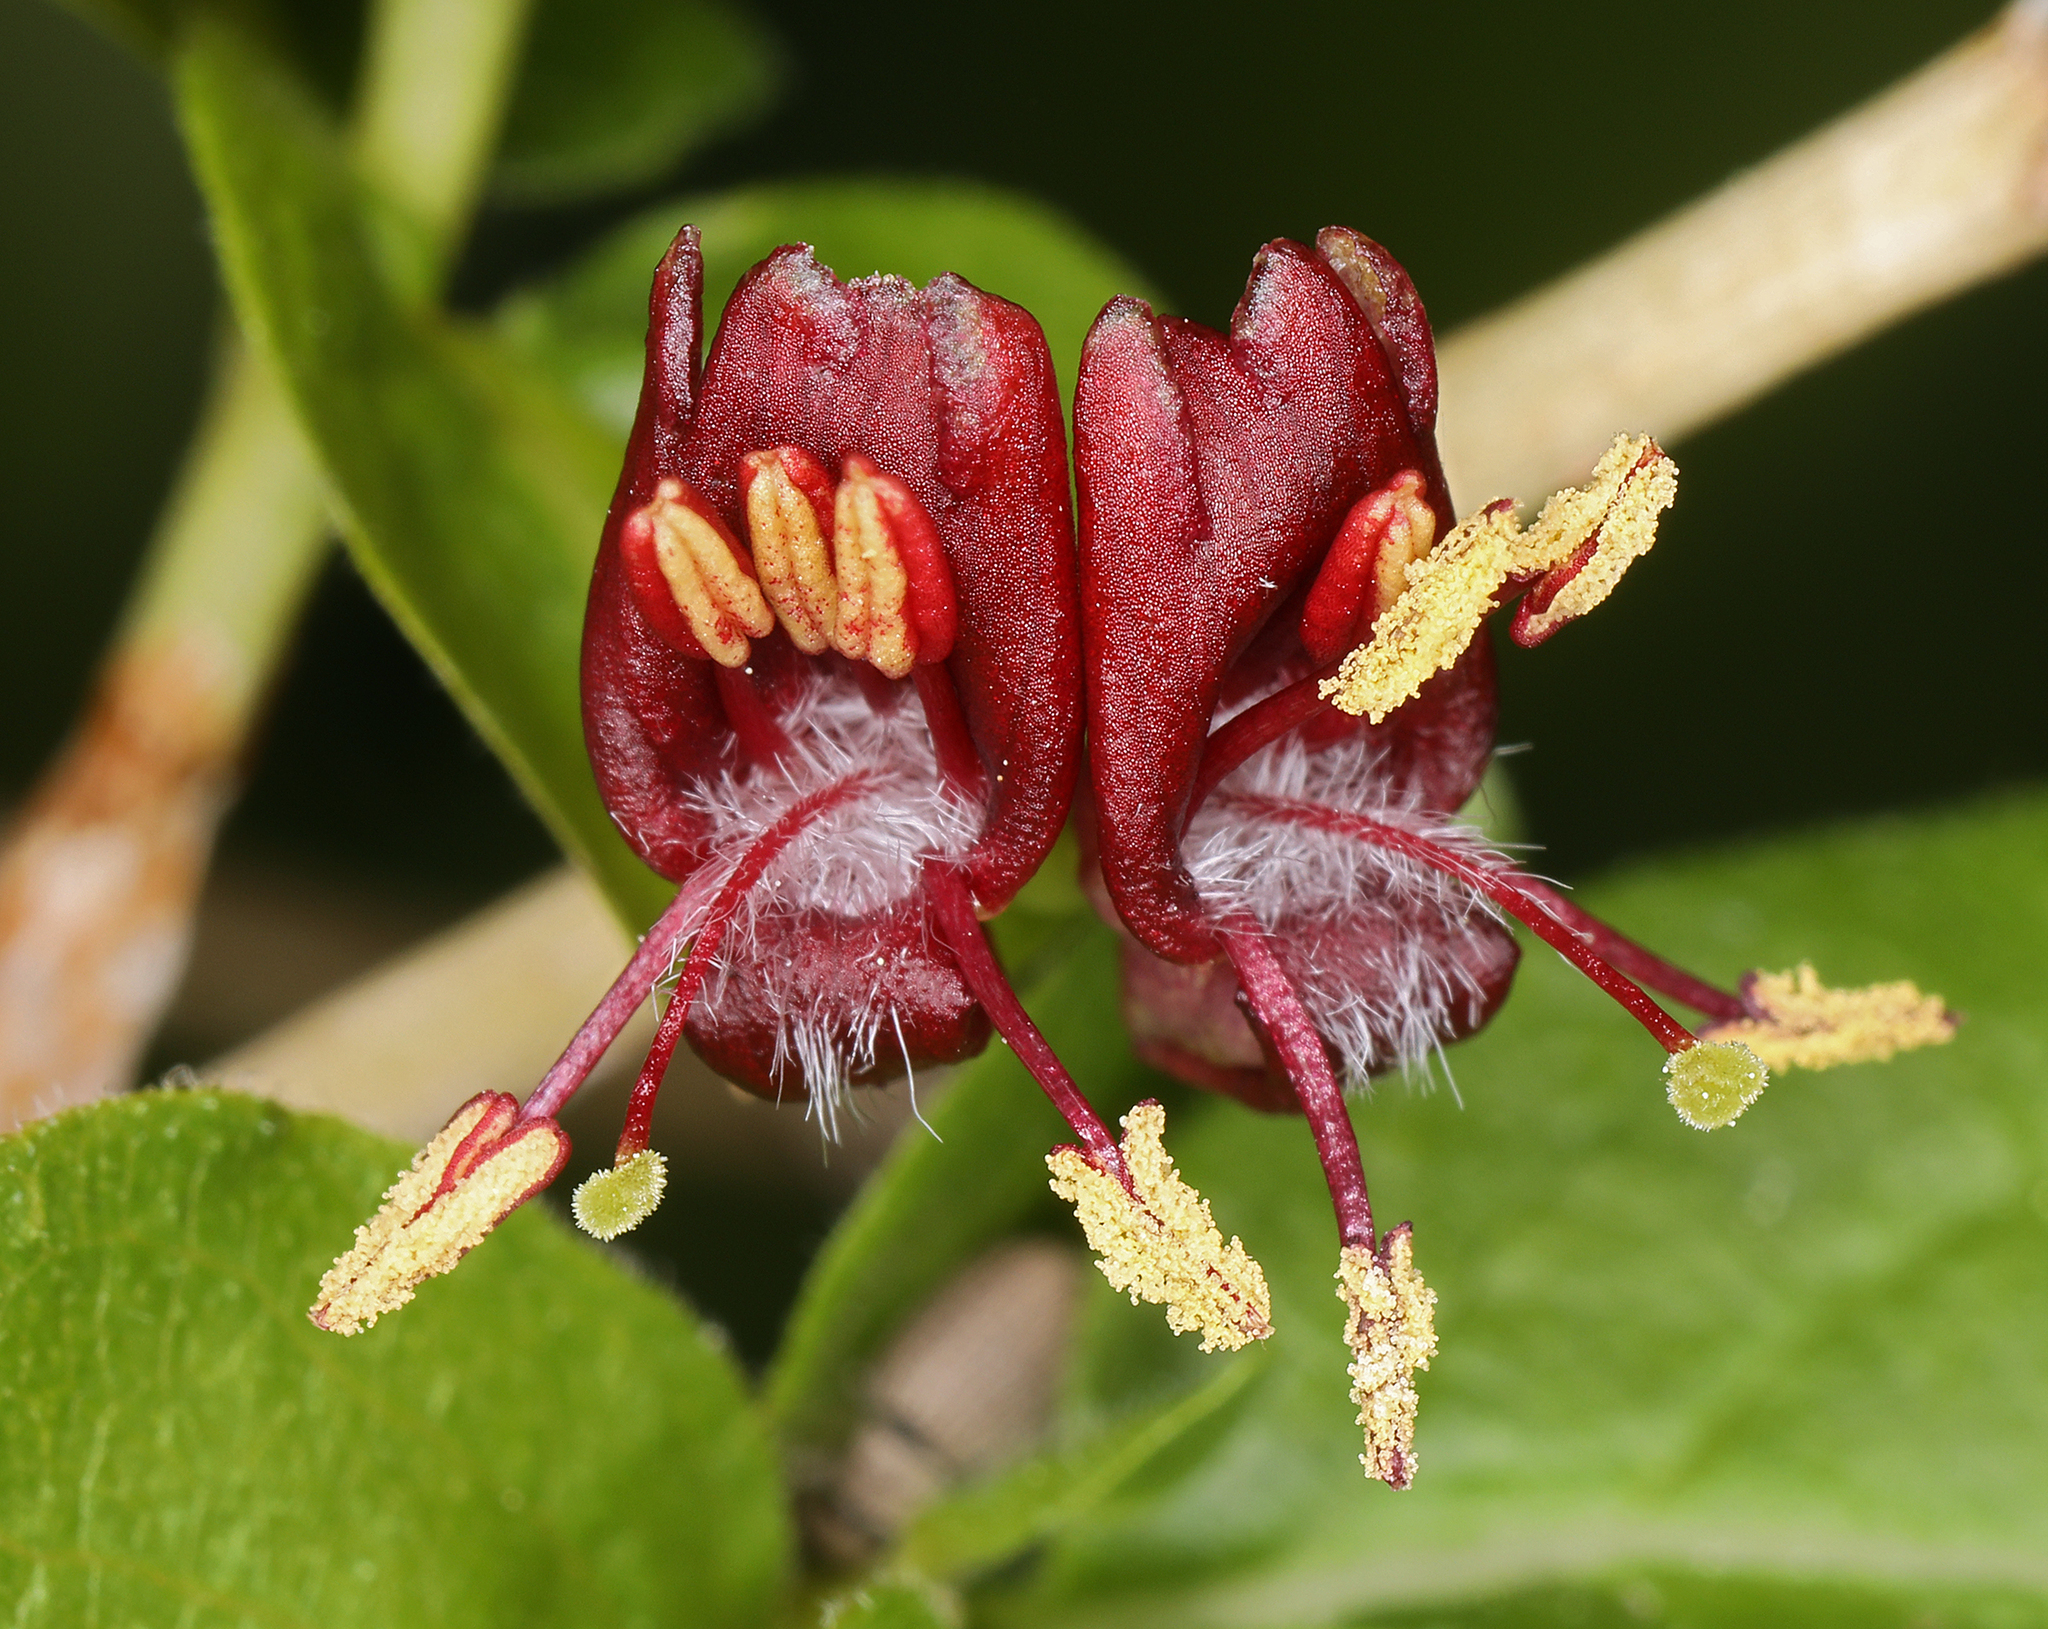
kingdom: Plantae
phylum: Tracheophyta
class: Magnoliopsida
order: Dipsacales
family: Caprifoliaceae
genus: Lonicera
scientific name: Lonicera conjugialis
